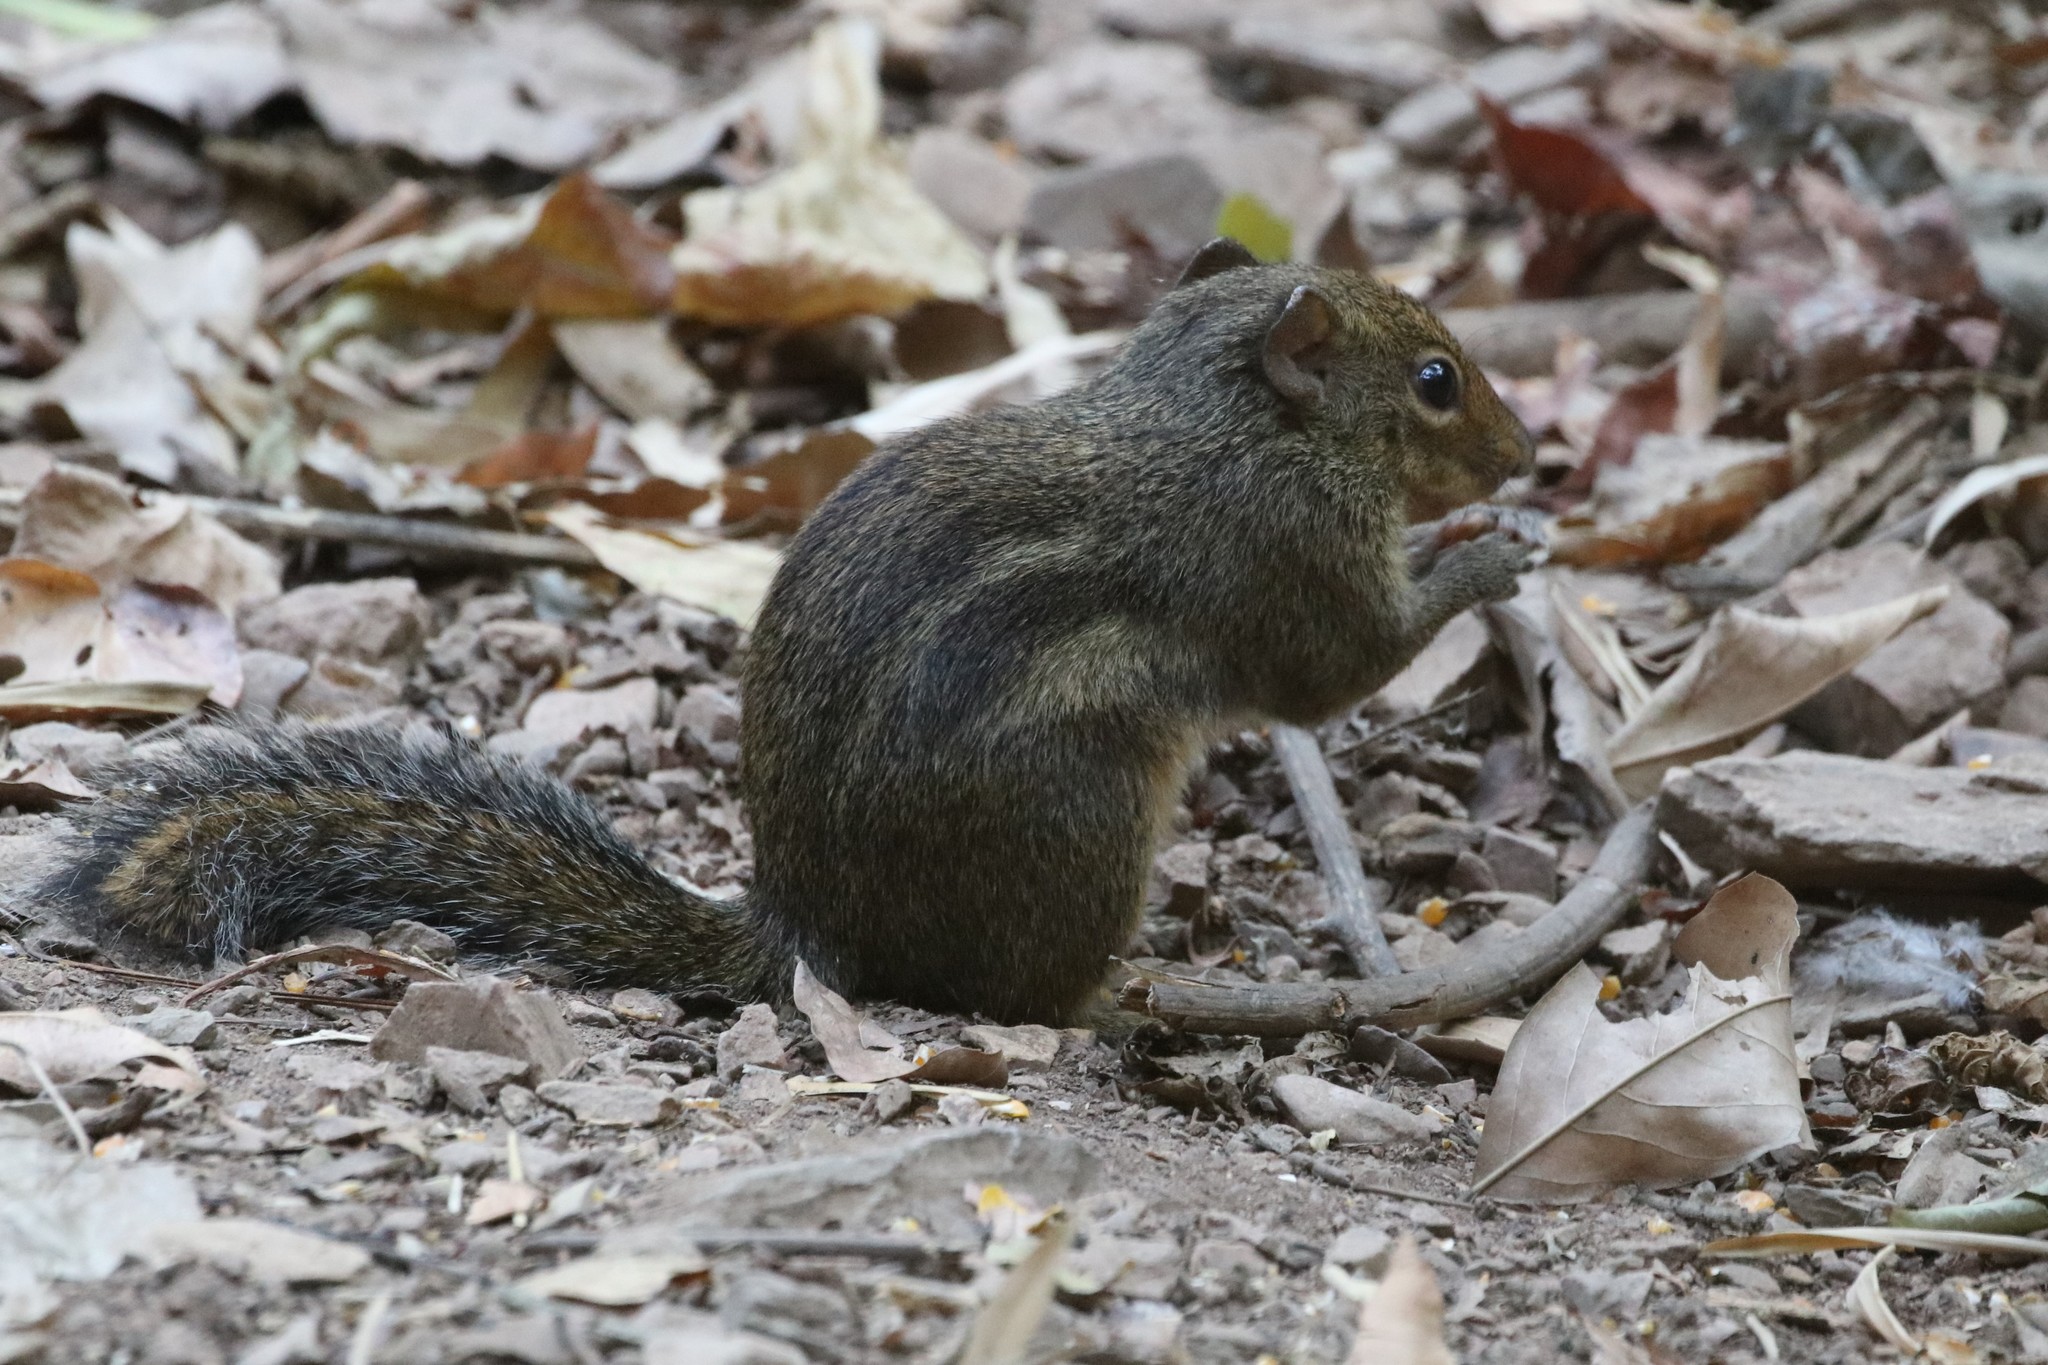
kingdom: Animalia
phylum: Chordata
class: Mammalia
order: Rodentia
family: Sciuridae
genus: Menetes
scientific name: Menetes berdmorei
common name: Indochinese ground squirrel
